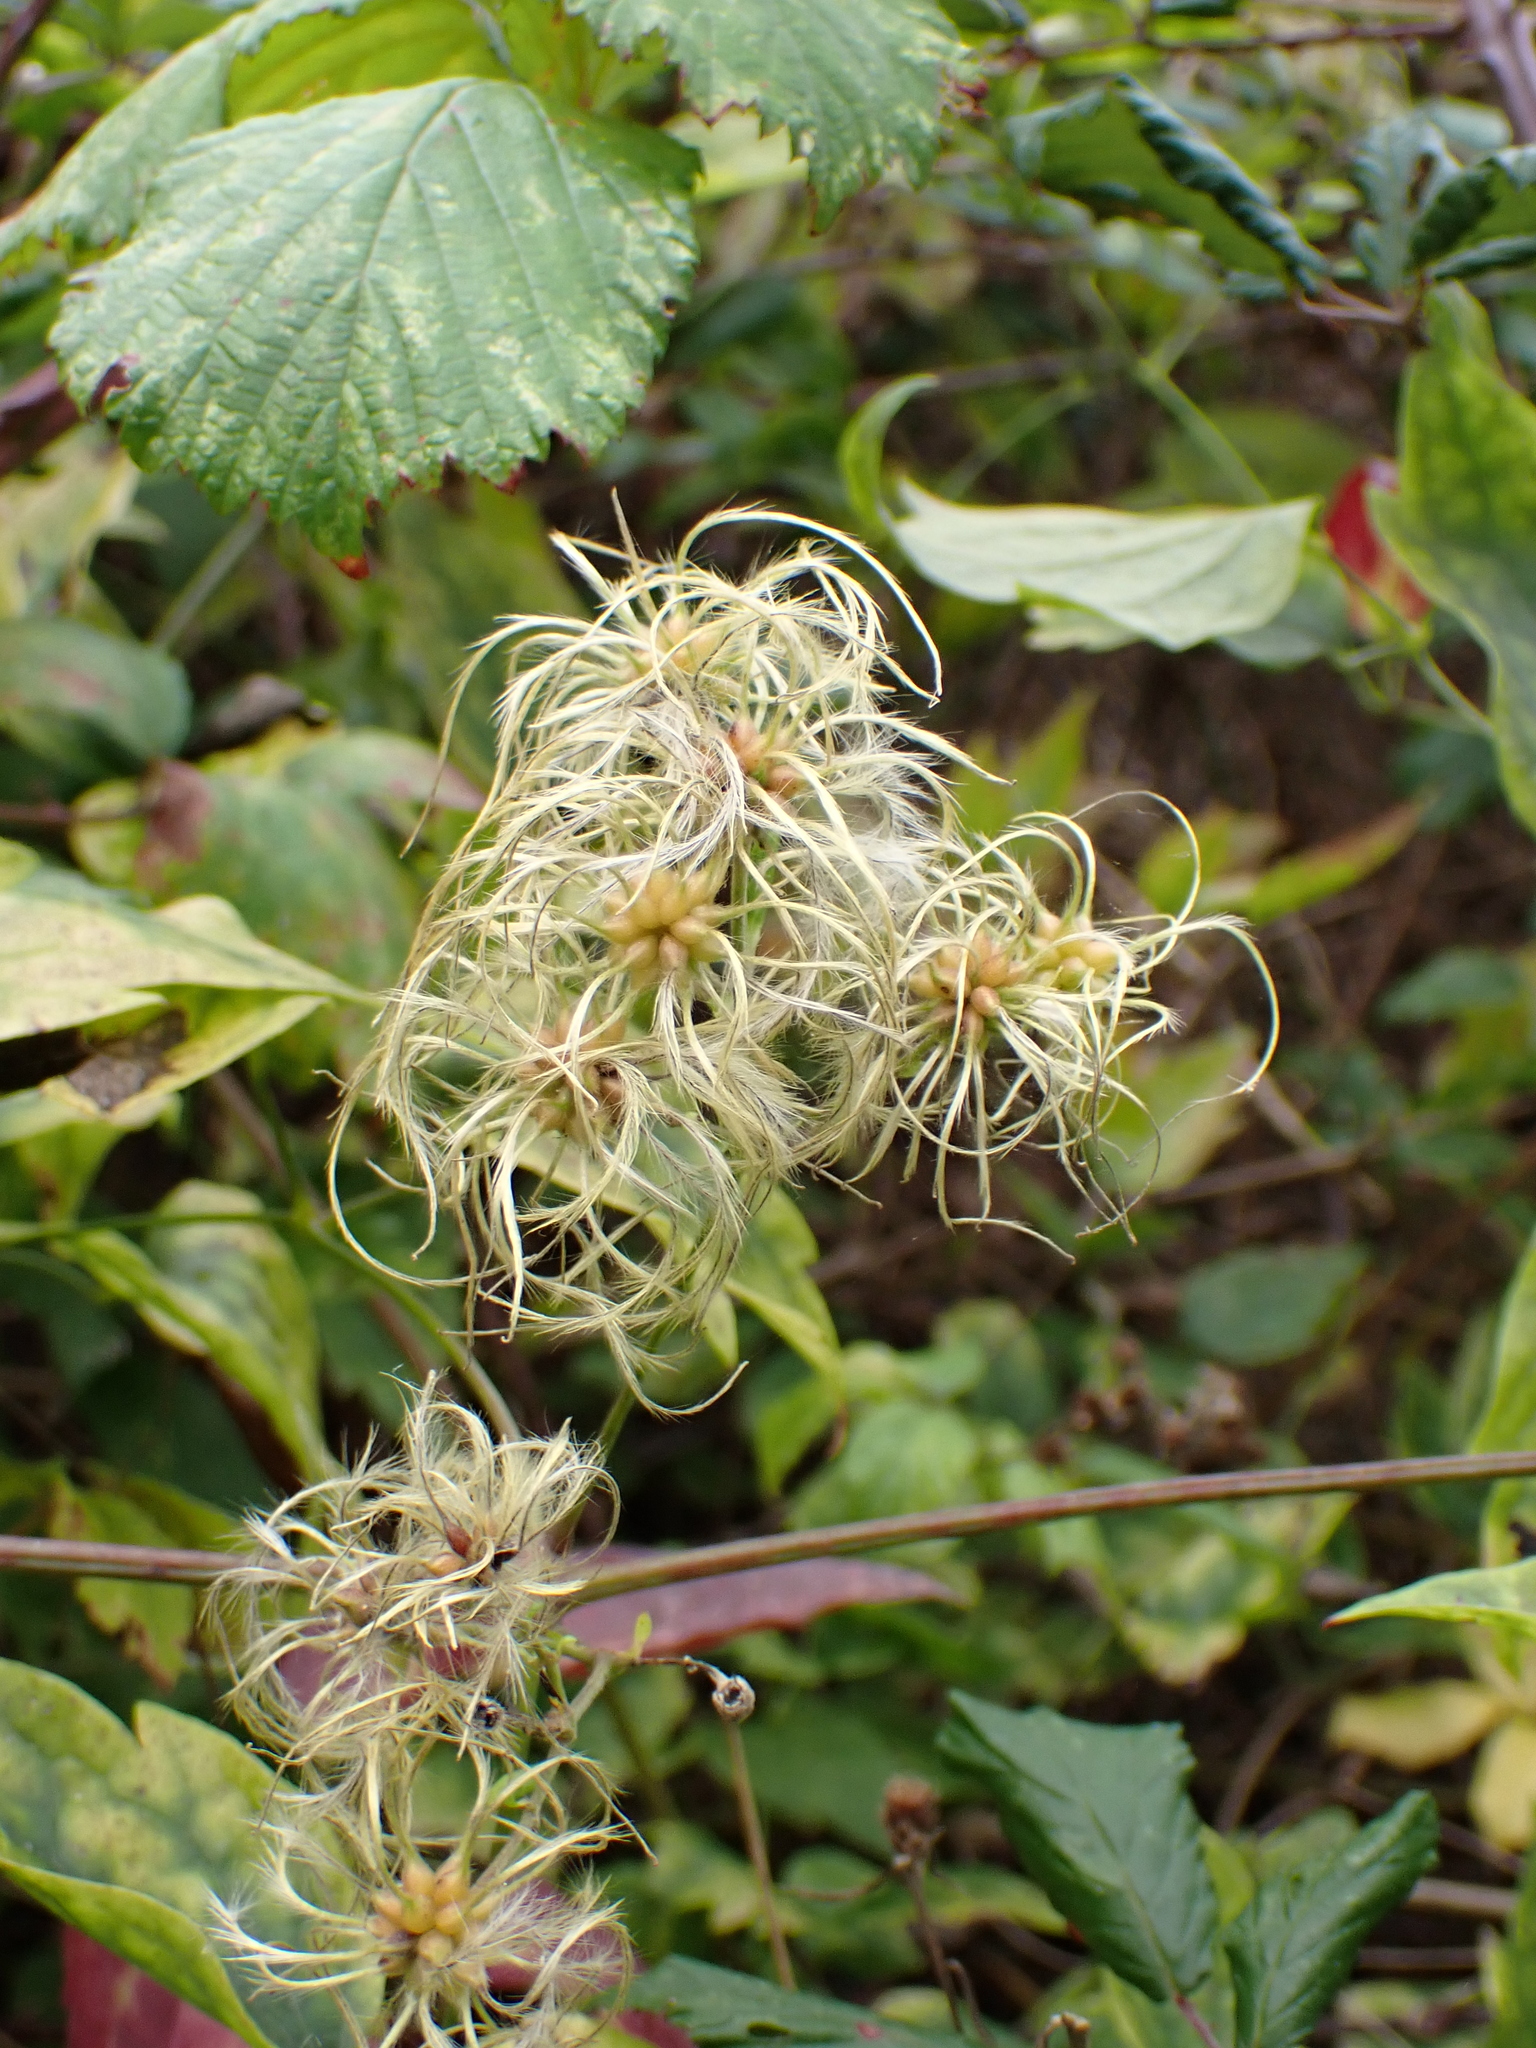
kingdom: Plantae
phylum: Tracheophyta
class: Magnoliopsida
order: Ranunculales
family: Ranunculaceae
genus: Clematis
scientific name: Clematis vitalba
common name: Evergreen clematis
